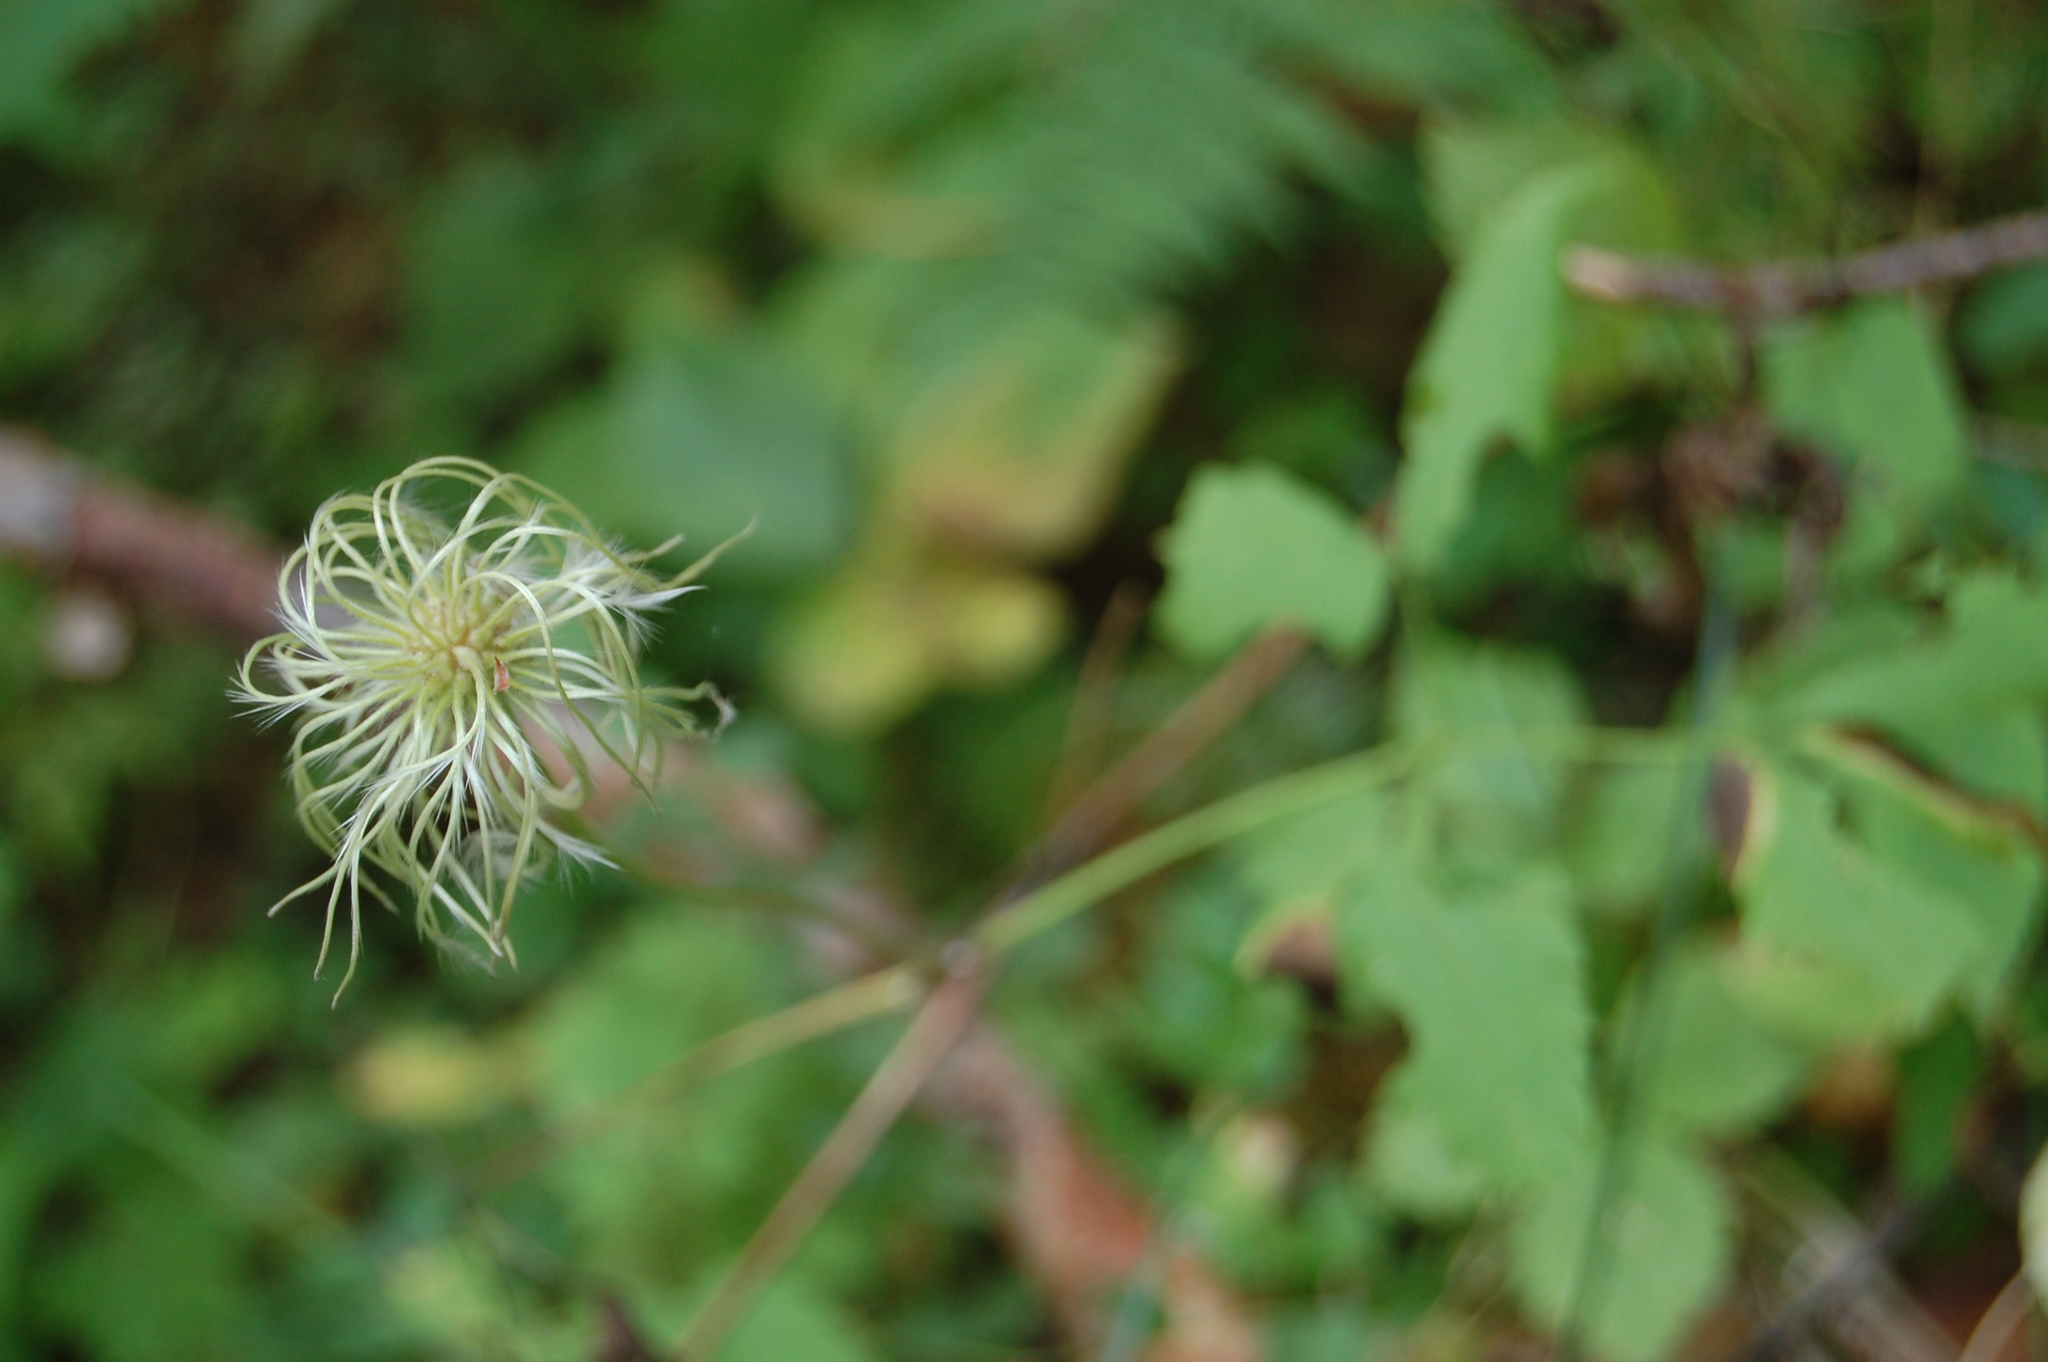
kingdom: Plantae
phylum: Tracheophyta
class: Magnoliopsida
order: Ranunculales
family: Ranunculaceae
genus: Clematis
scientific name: Clematis sibirica
